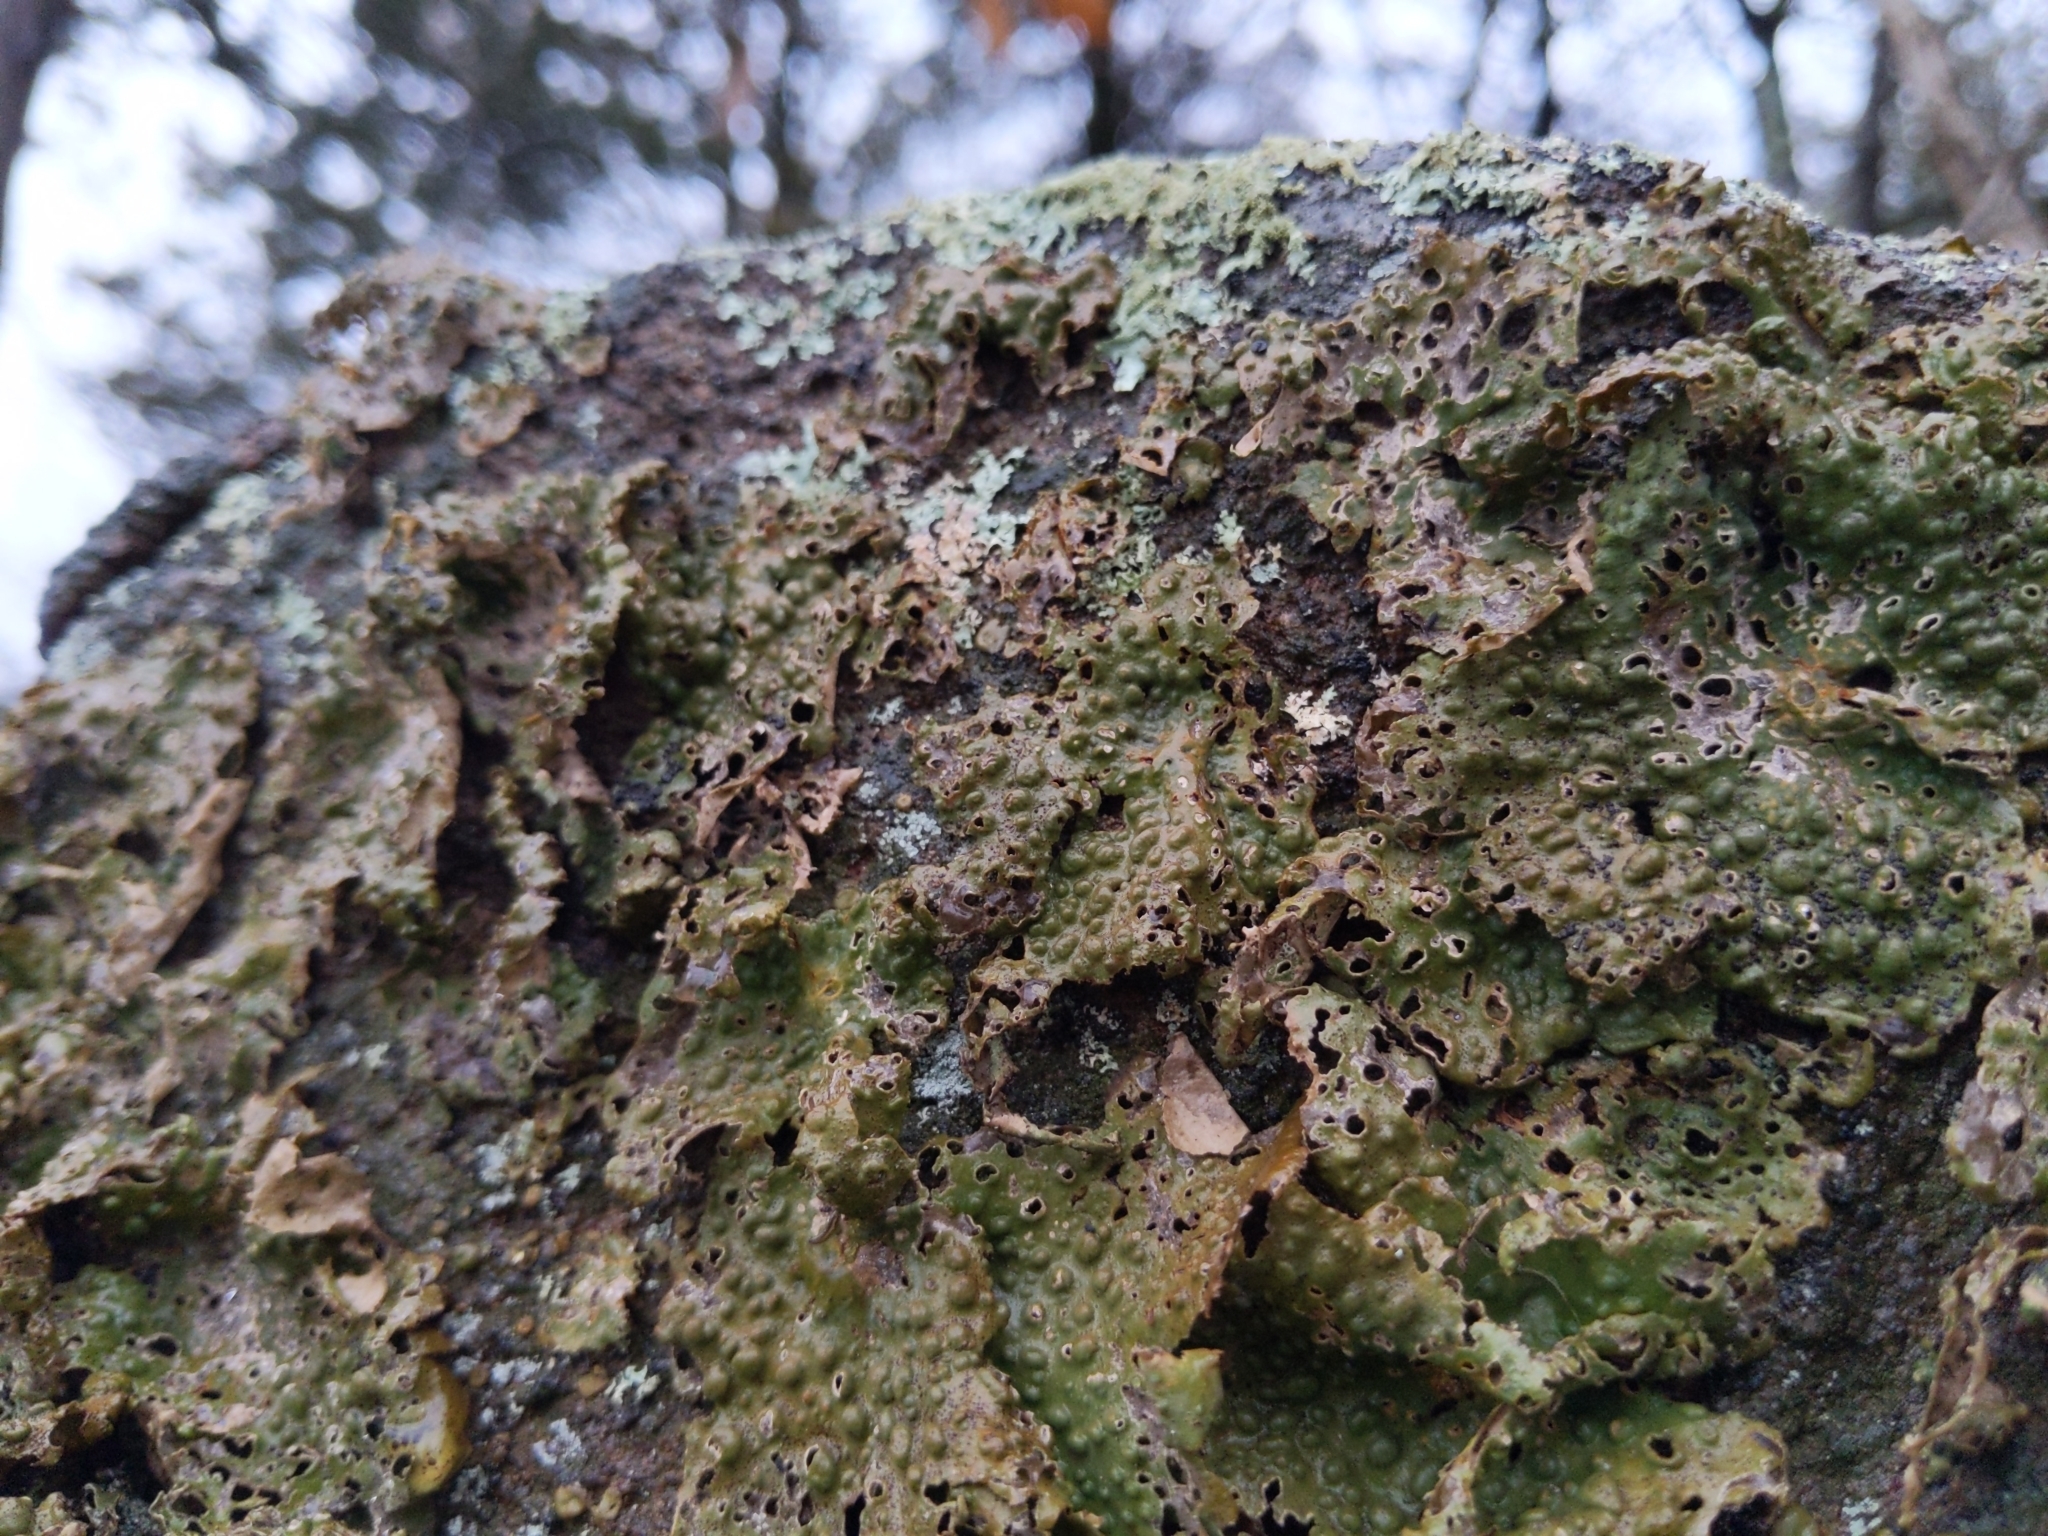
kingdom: Fungi
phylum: Ascomycota
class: Lecanoromycetes
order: Umbilicariales
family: Umbilicariaceae
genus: Lasallia
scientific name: Lasallia papulosa
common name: Common toadskin lichen
